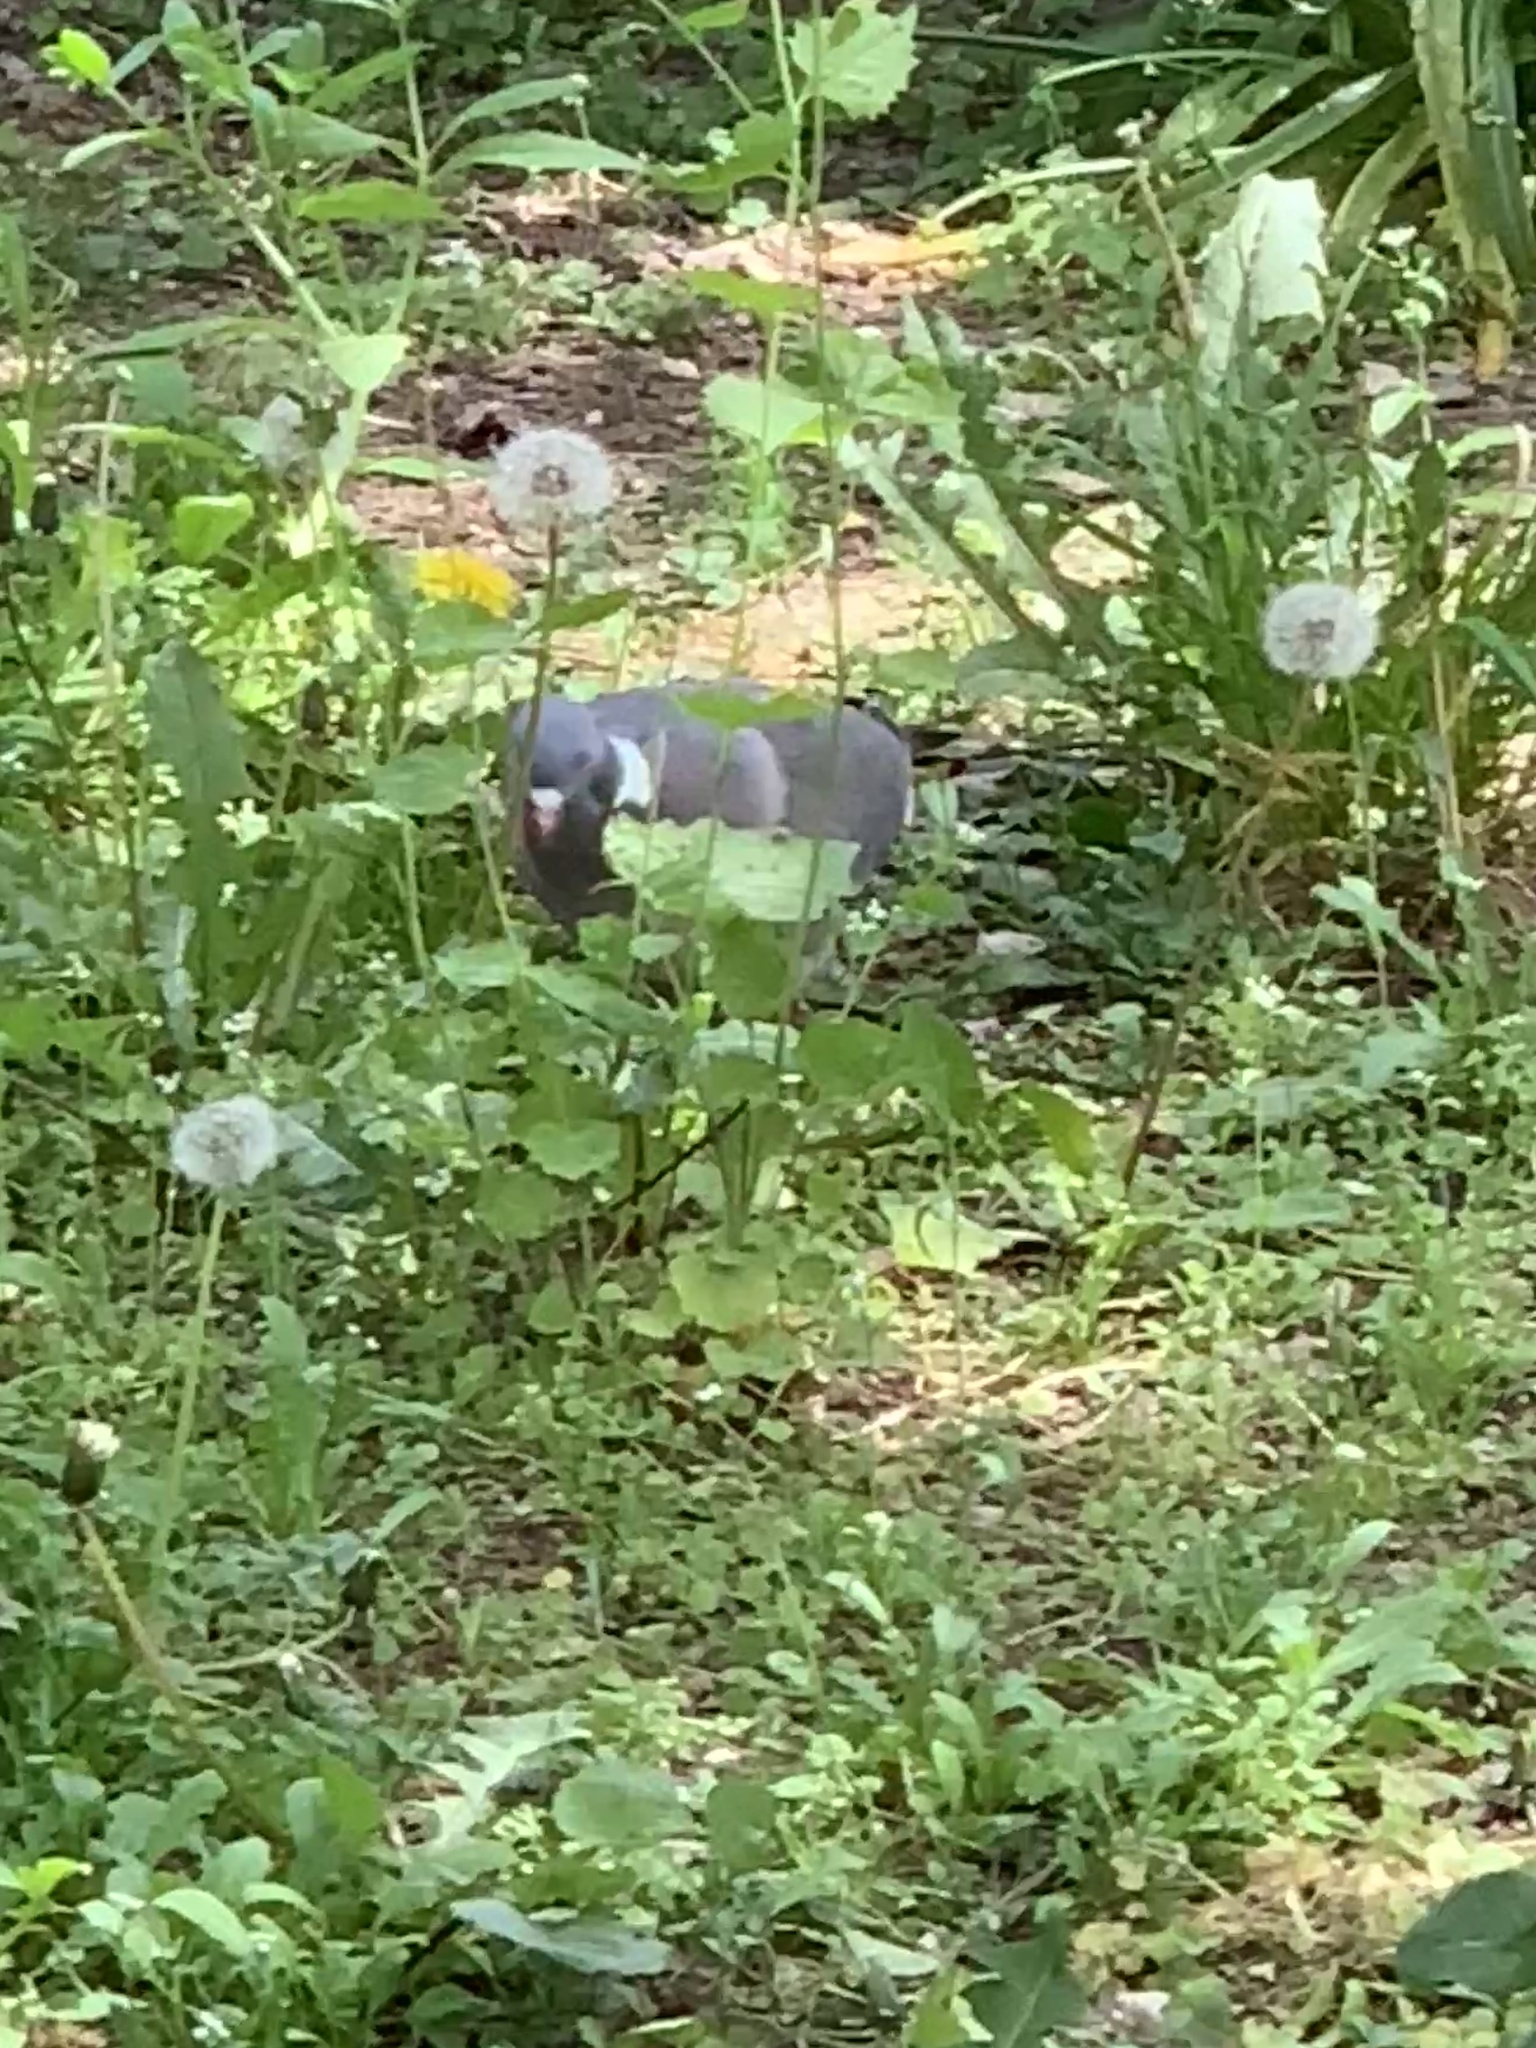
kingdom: Animalia
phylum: Chordata
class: Aves
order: Columbiformes
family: Columbidae
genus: Columba
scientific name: Columba palumbus
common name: Common wood pigeon
